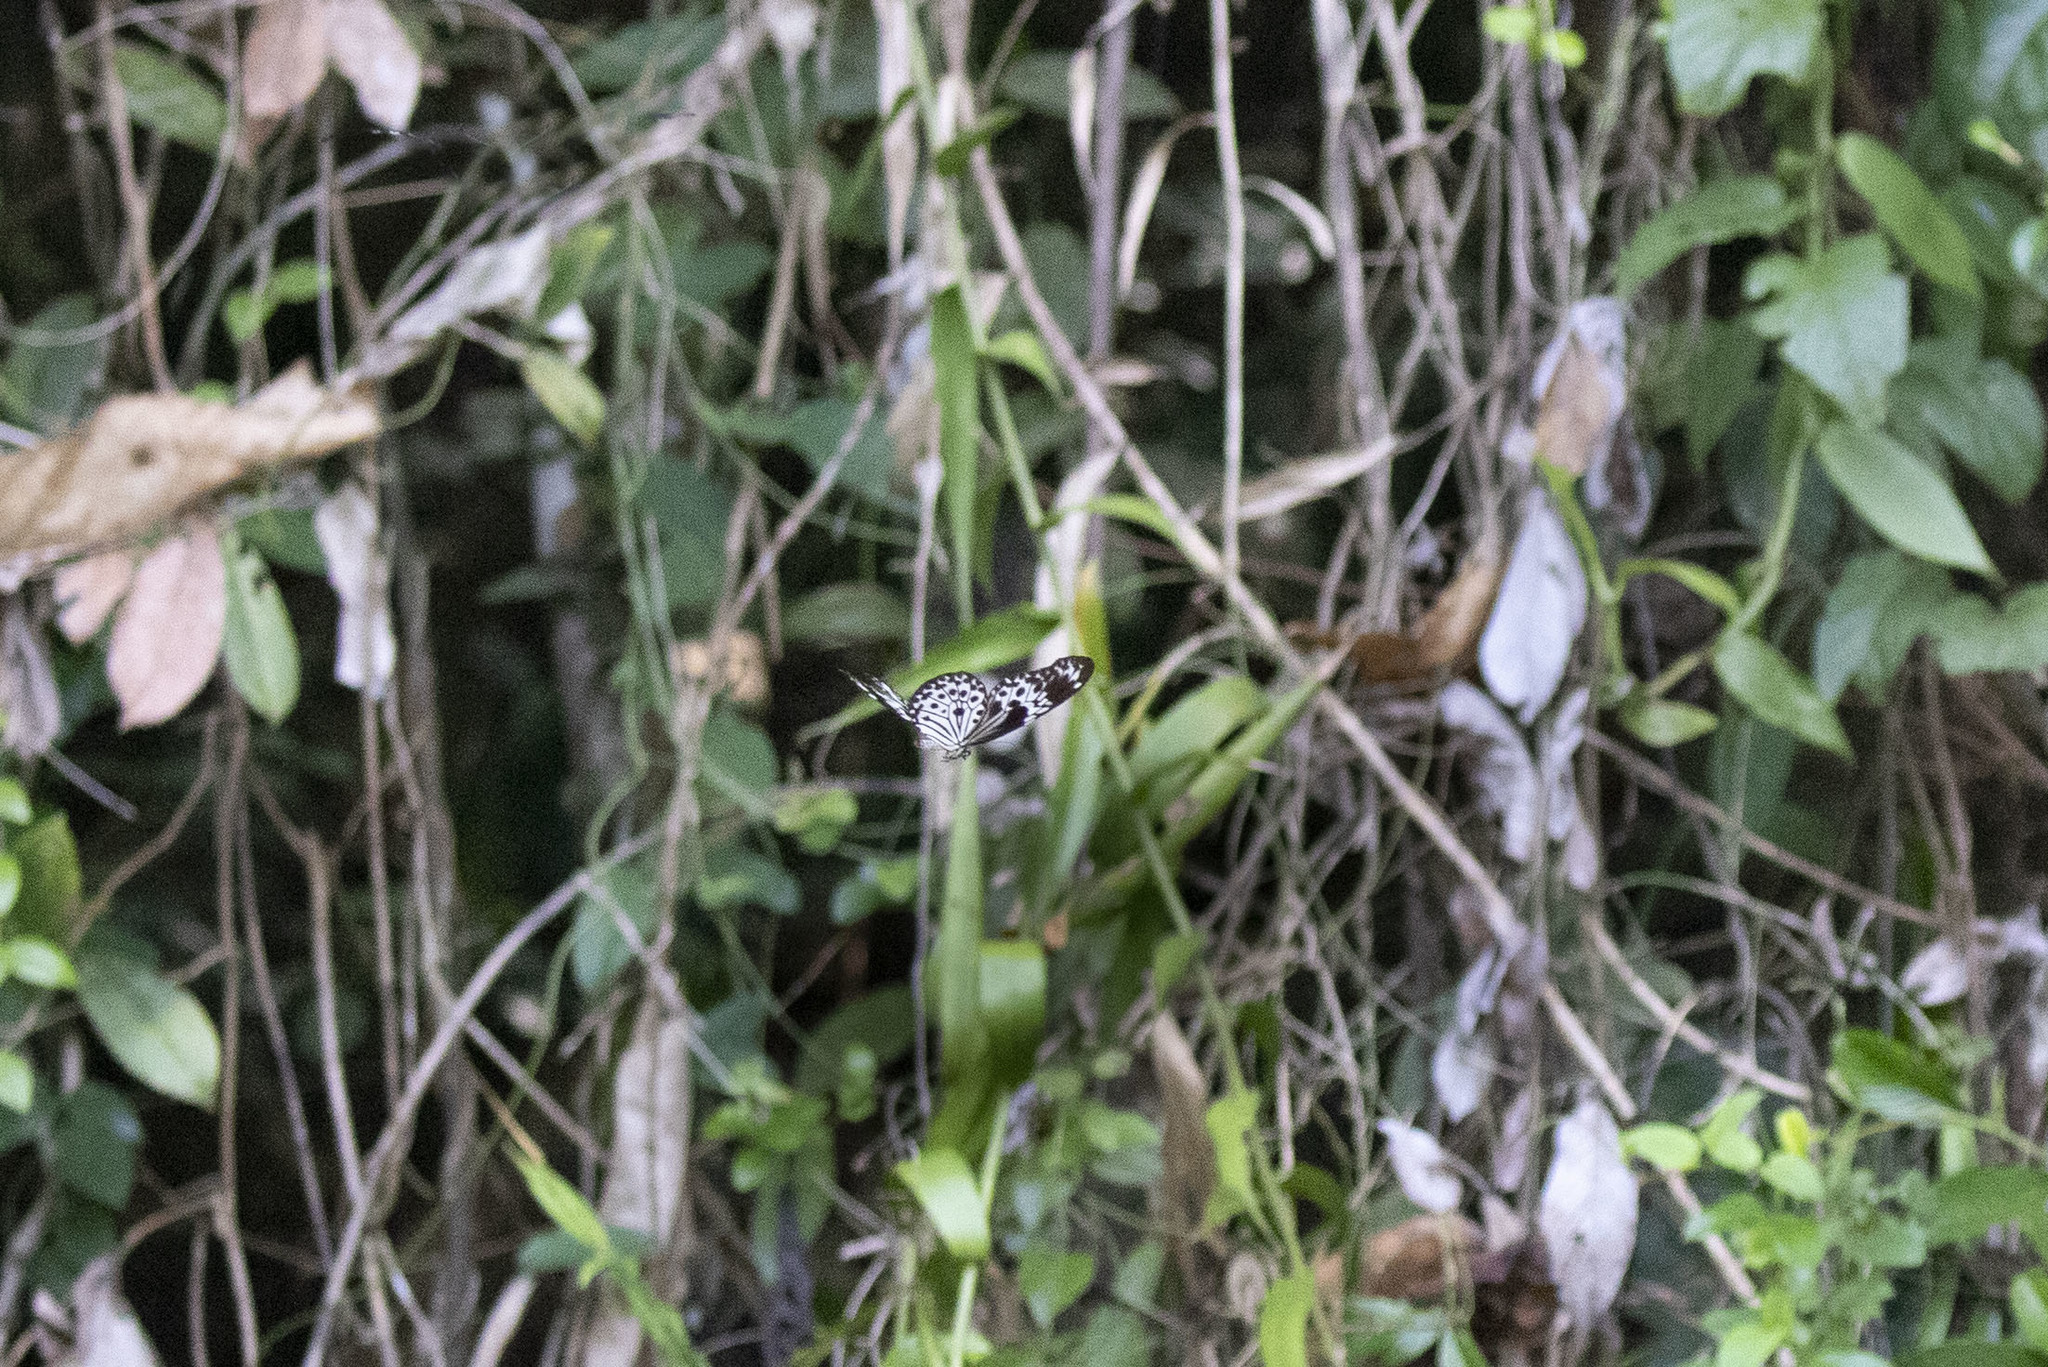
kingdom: Animalia
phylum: Arthropoda
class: Insecta
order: Lepidoptera
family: Nymphalidae
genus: Idea
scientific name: Idea agamarschana
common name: Andaman tree nymph
